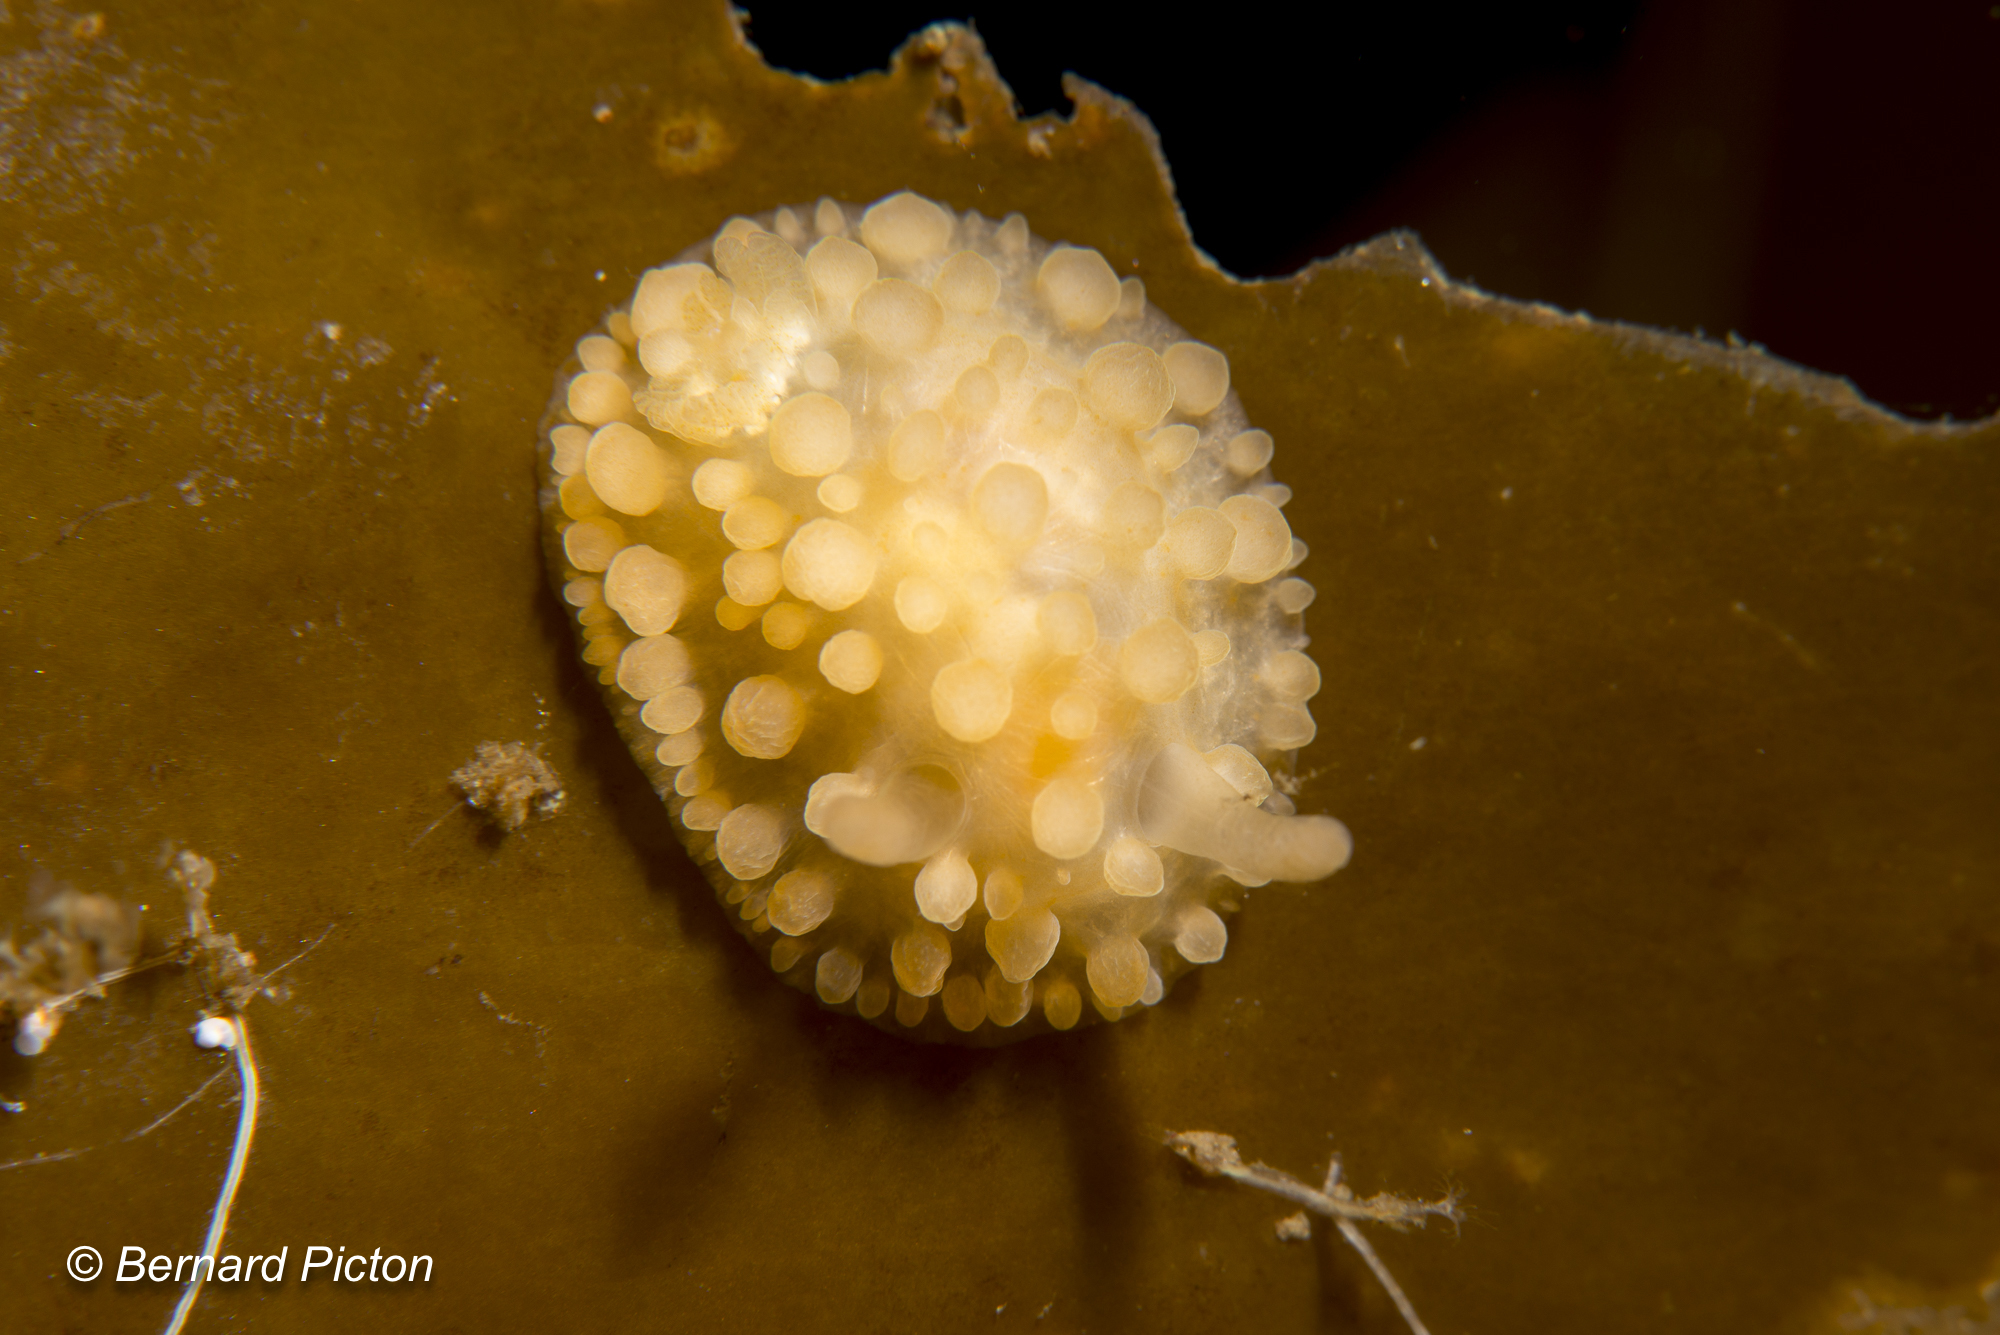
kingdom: Animalia
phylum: Mollusca
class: Gastropoda
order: Nudibranchia
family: Onchidorididae
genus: Adalaria
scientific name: Adalaria loveni
